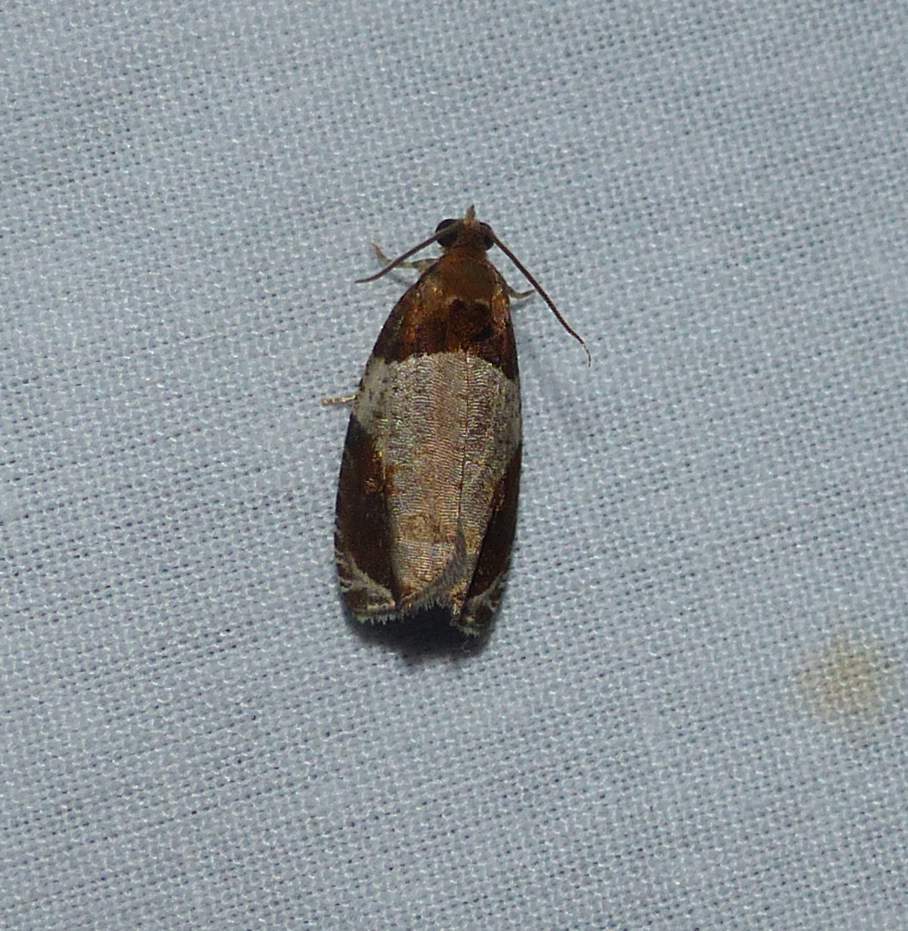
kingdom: Animalia
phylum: Arthropoda
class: Insecta
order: Lepidoptera
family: Tortricidae
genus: Olethreutes
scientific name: Olethreutes ferriferana
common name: Hydrangea leaftier moth
